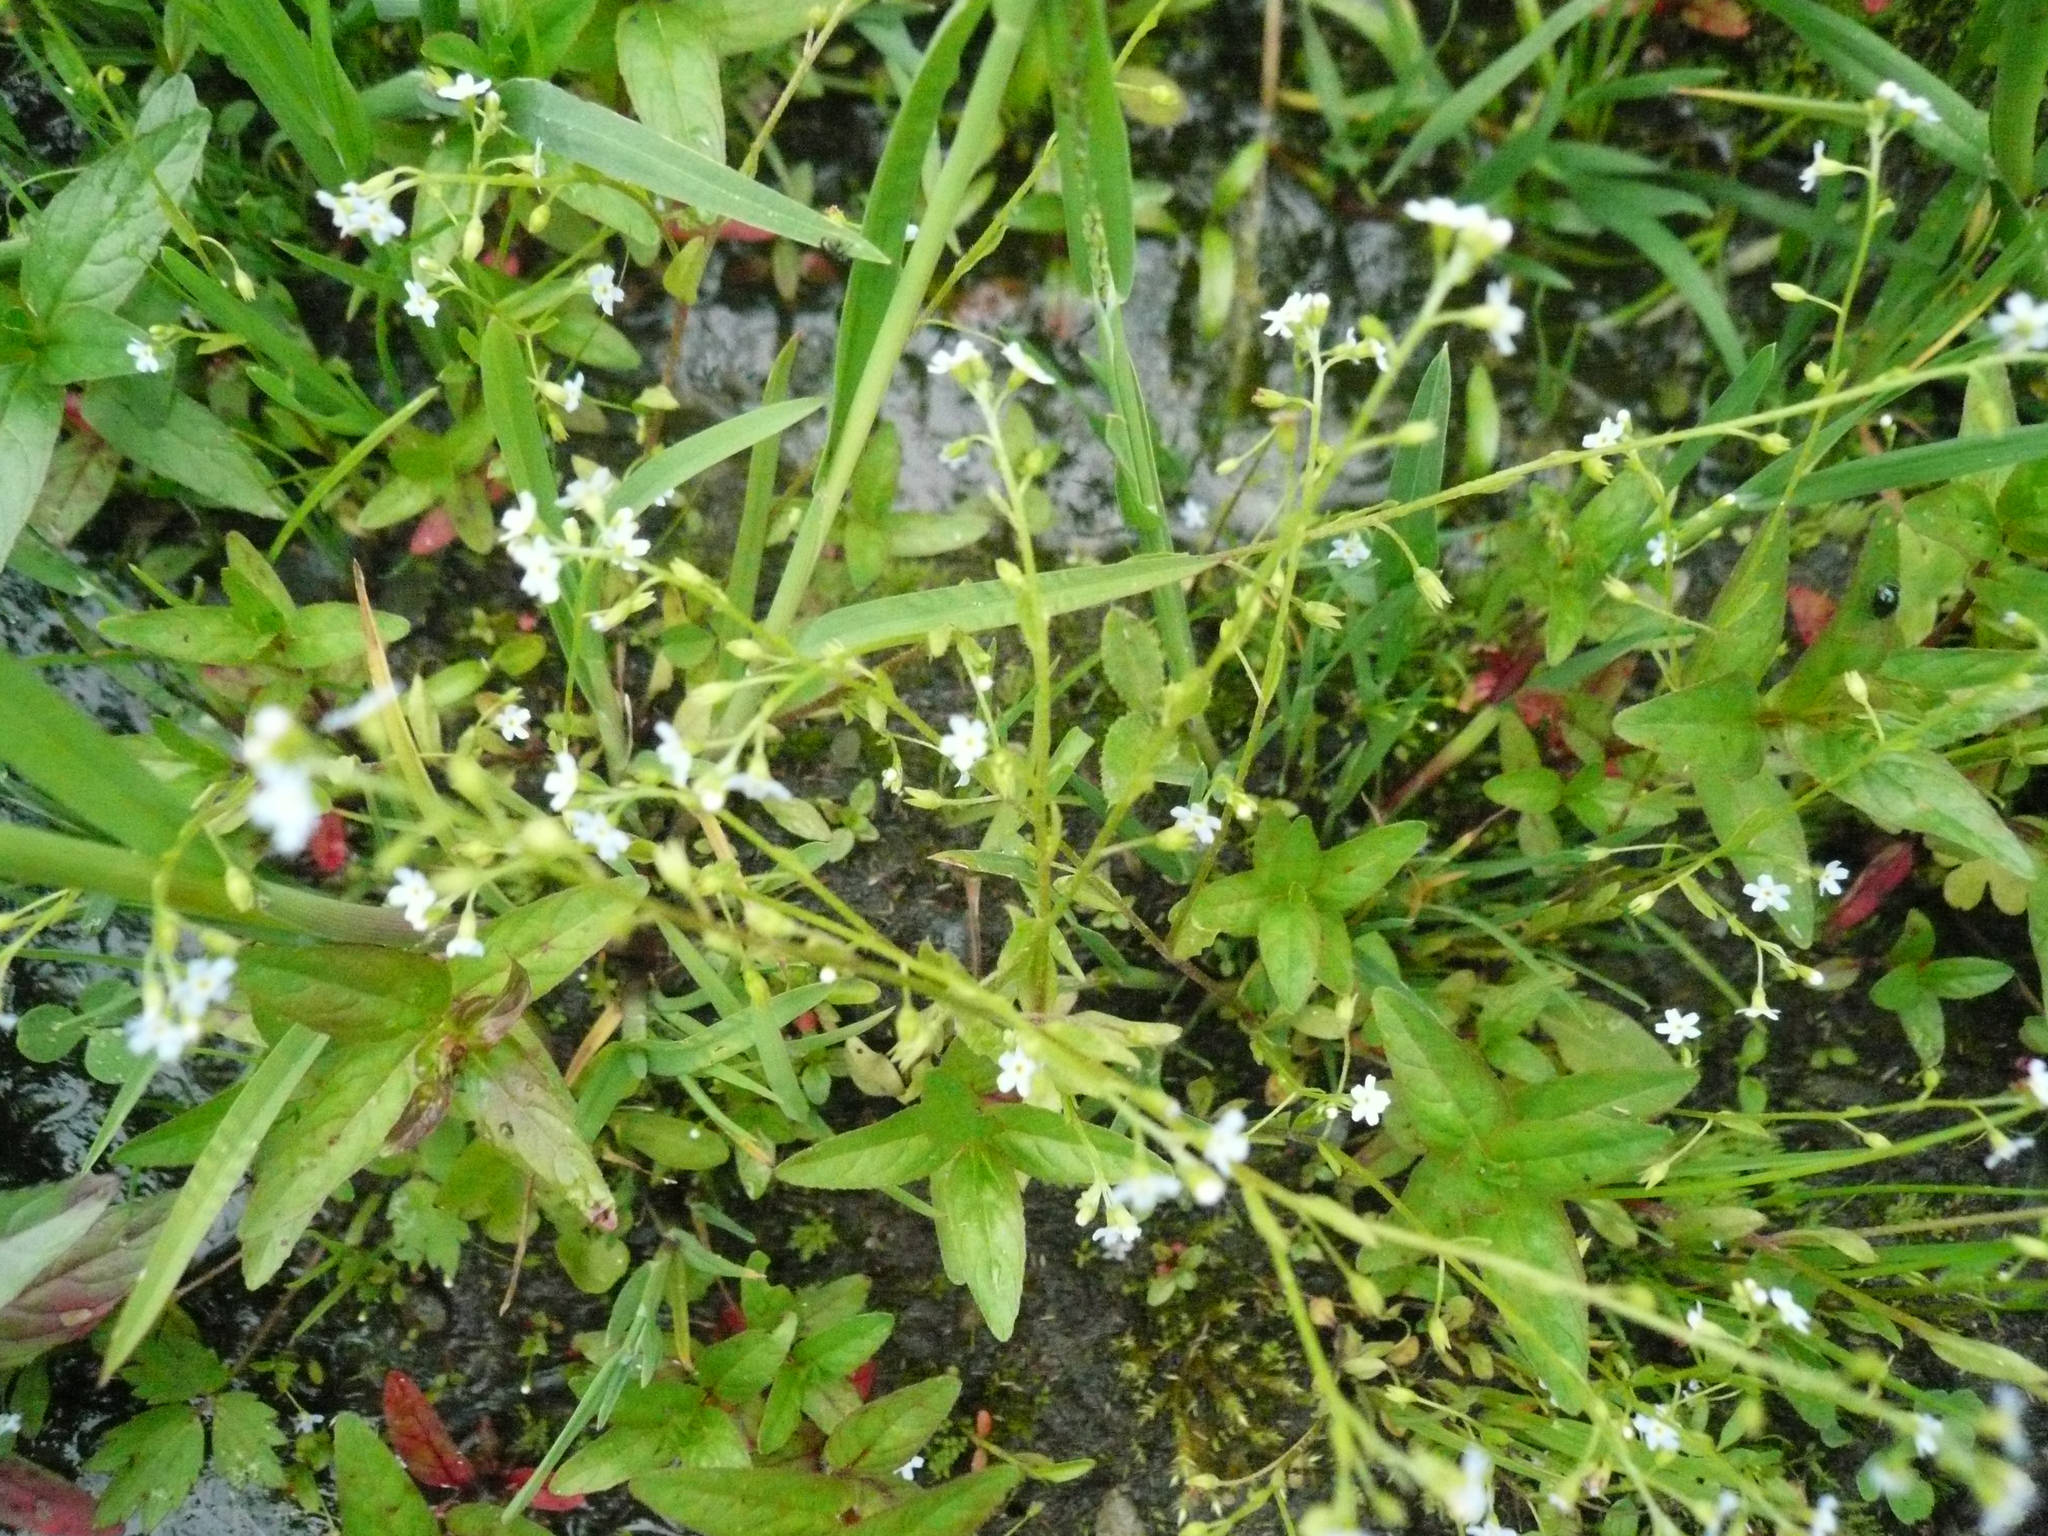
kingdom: Plantae
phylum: Tracheophyta
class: Magnoliopsida
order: Boraginales
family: Boraginaceae
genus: Myosotis
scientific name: Myosotis laxa
